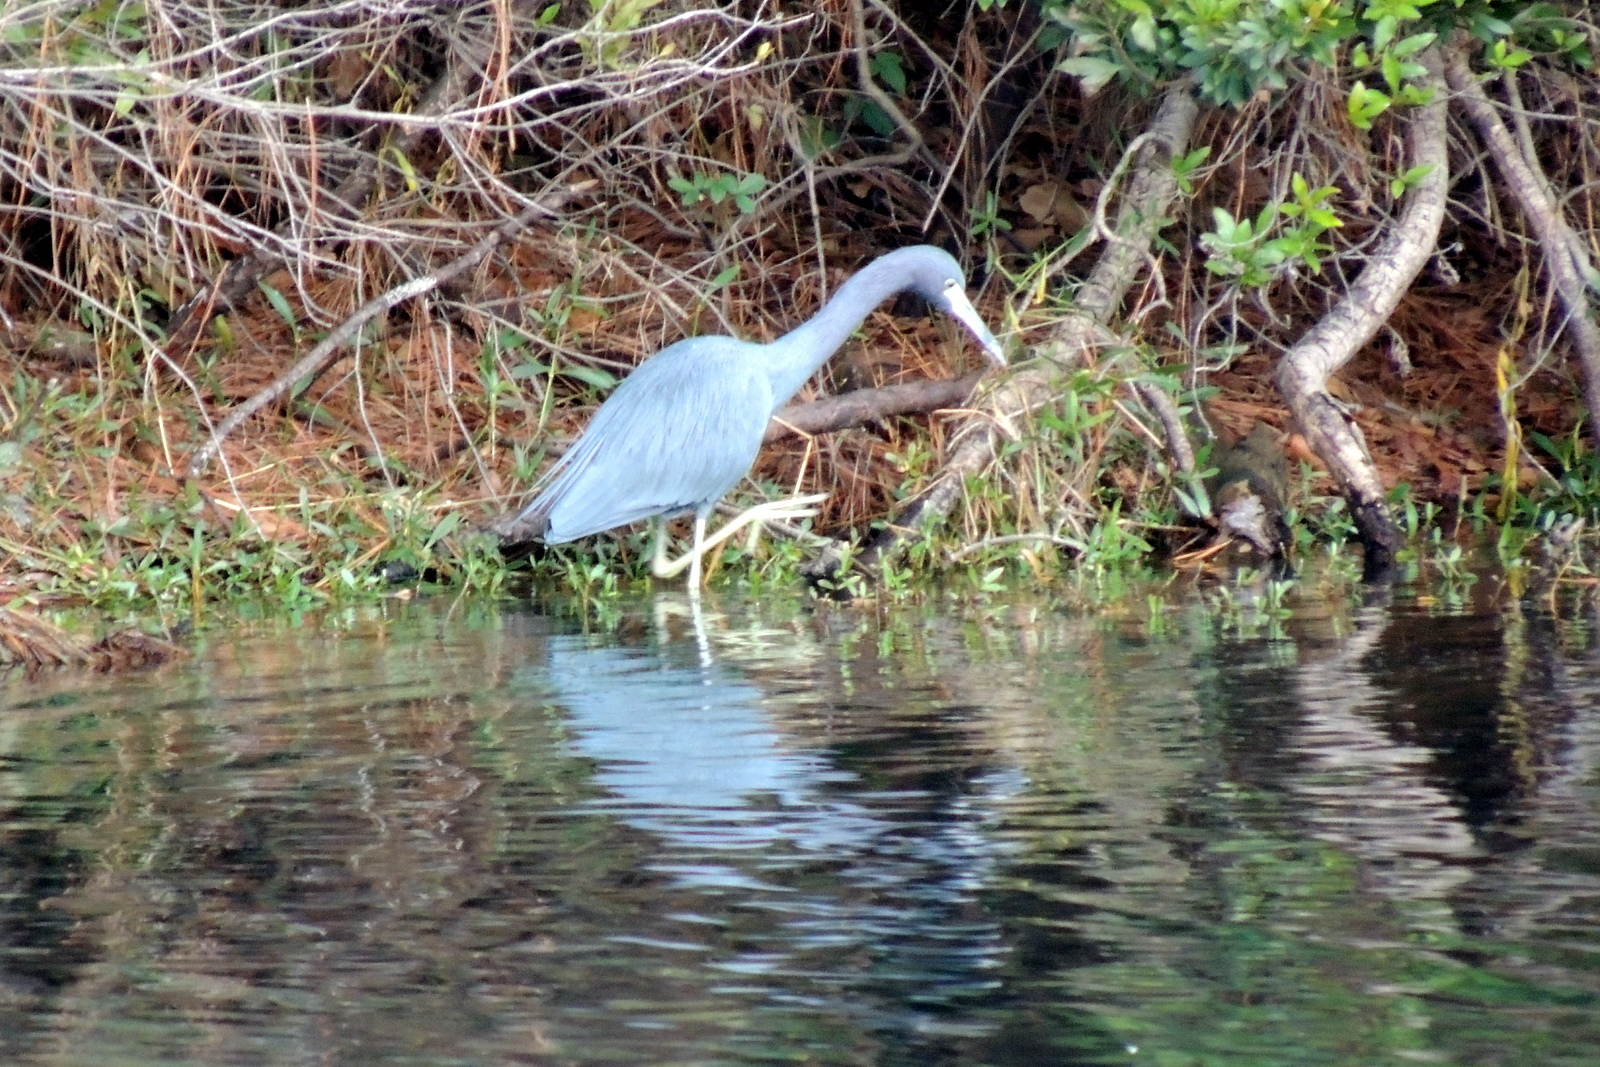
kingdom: Animalia
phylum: Chordata
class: Aves
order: Pelecaniformes
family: Ardeidae
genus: Egretta
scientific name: Egretta caerulea
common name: Little blue heron
